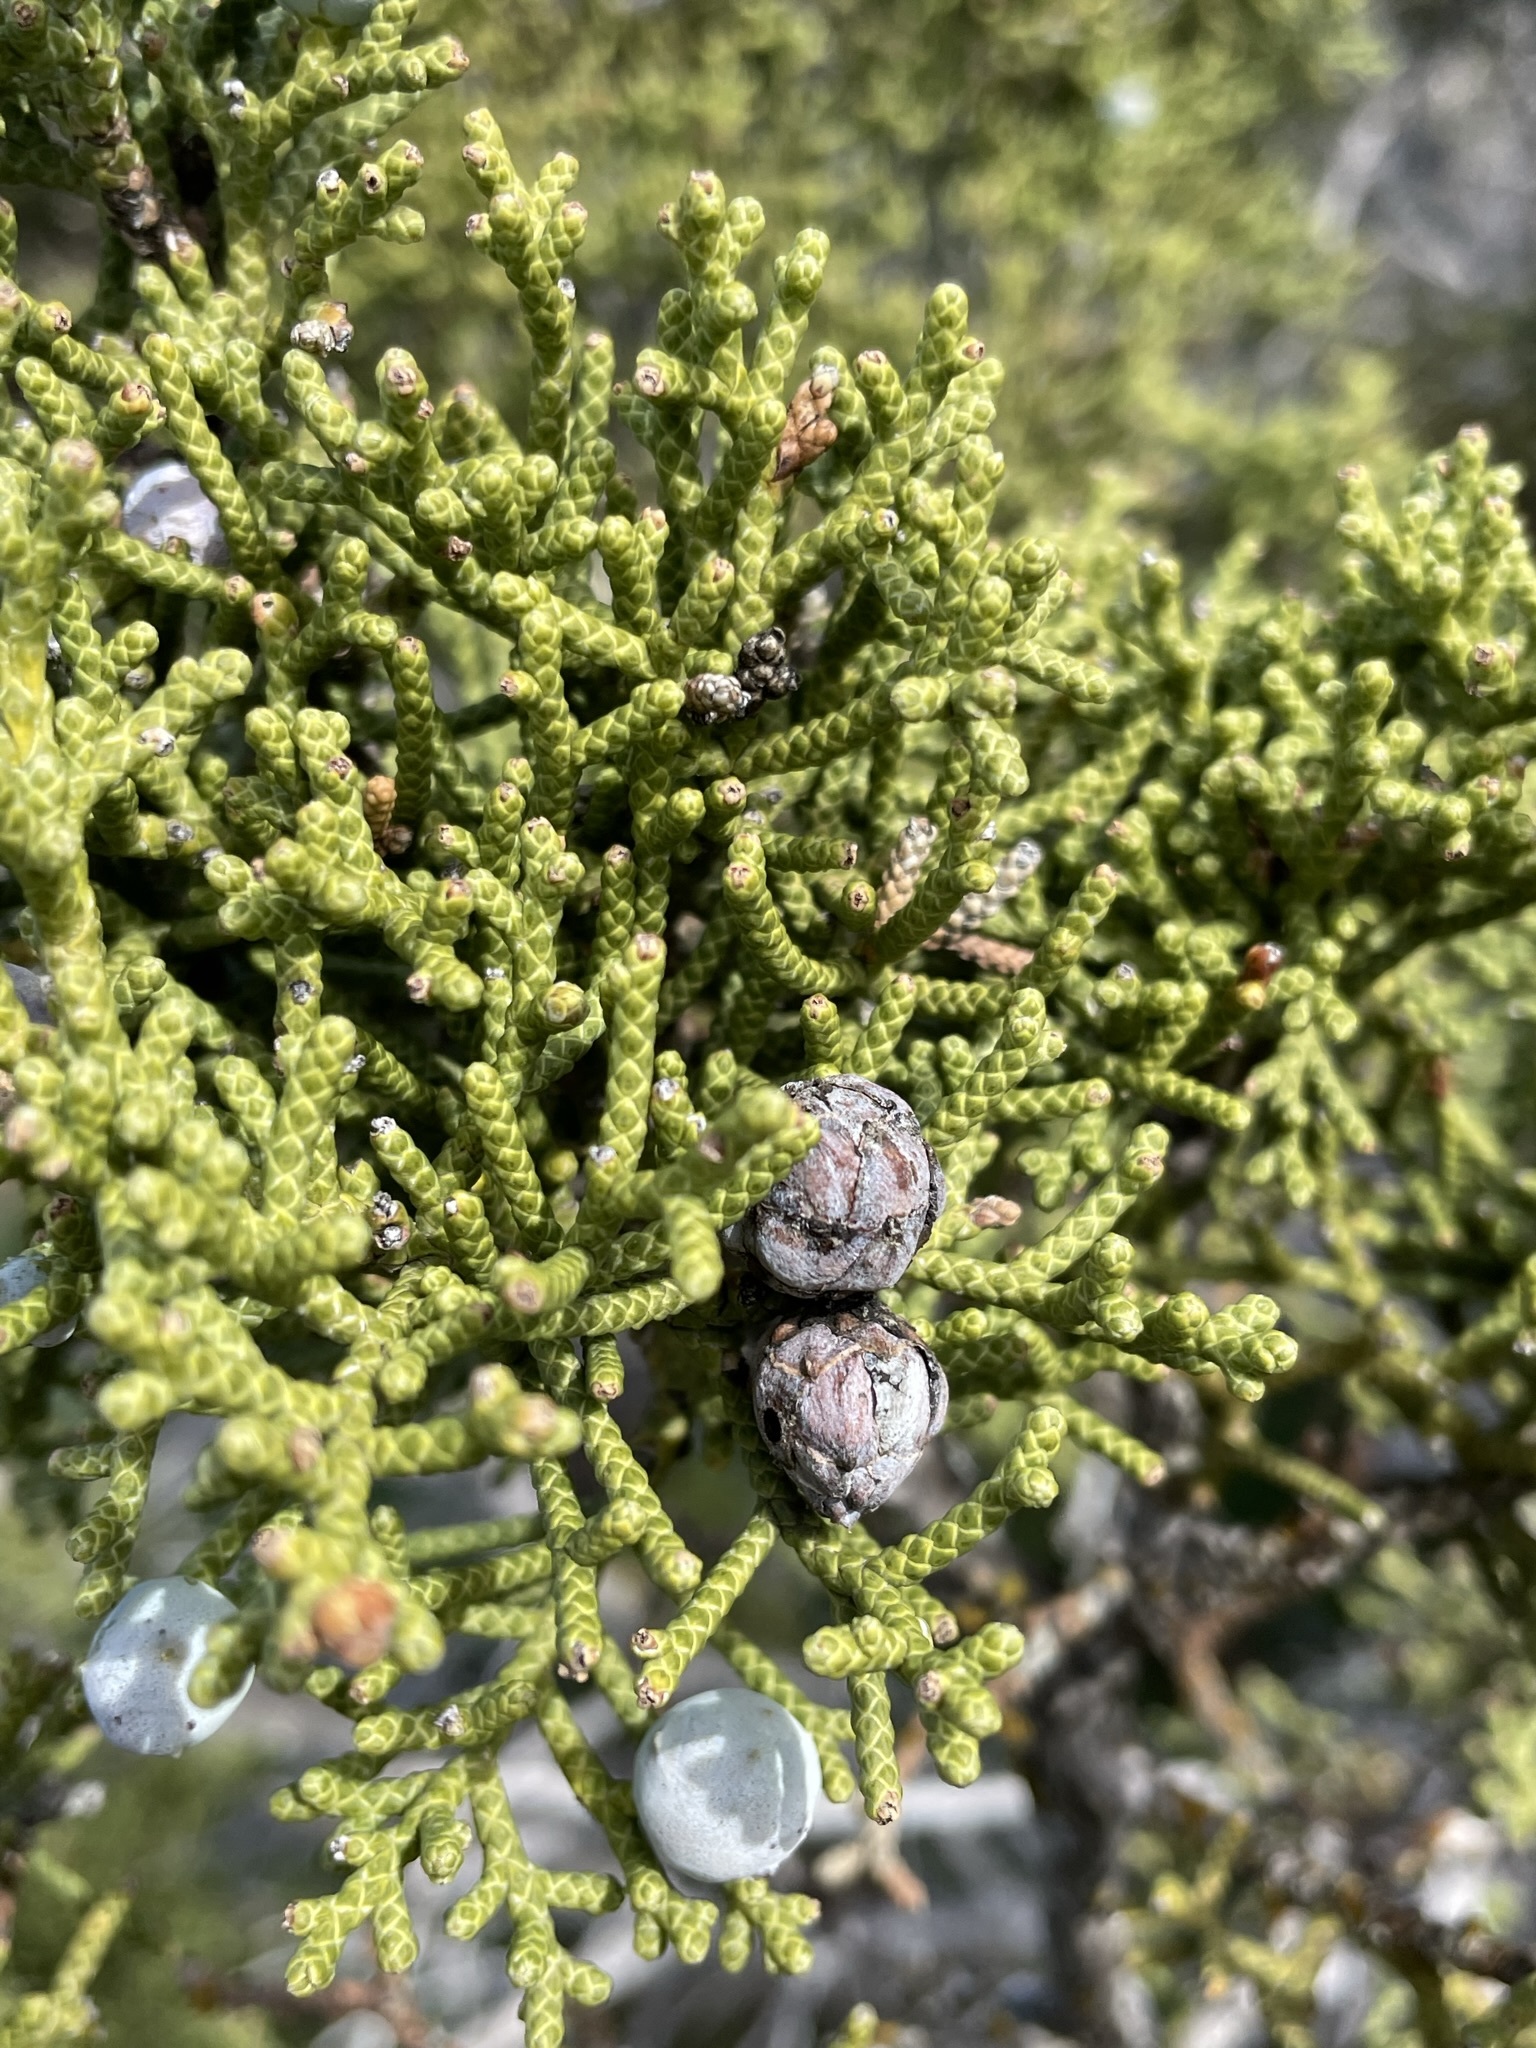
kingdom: Plantae
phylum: Tracheophyta
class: Pinopsida
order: Pinales
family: Cupressaceae
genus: Juniperus
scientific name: Juniperus californica
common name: California juniper
